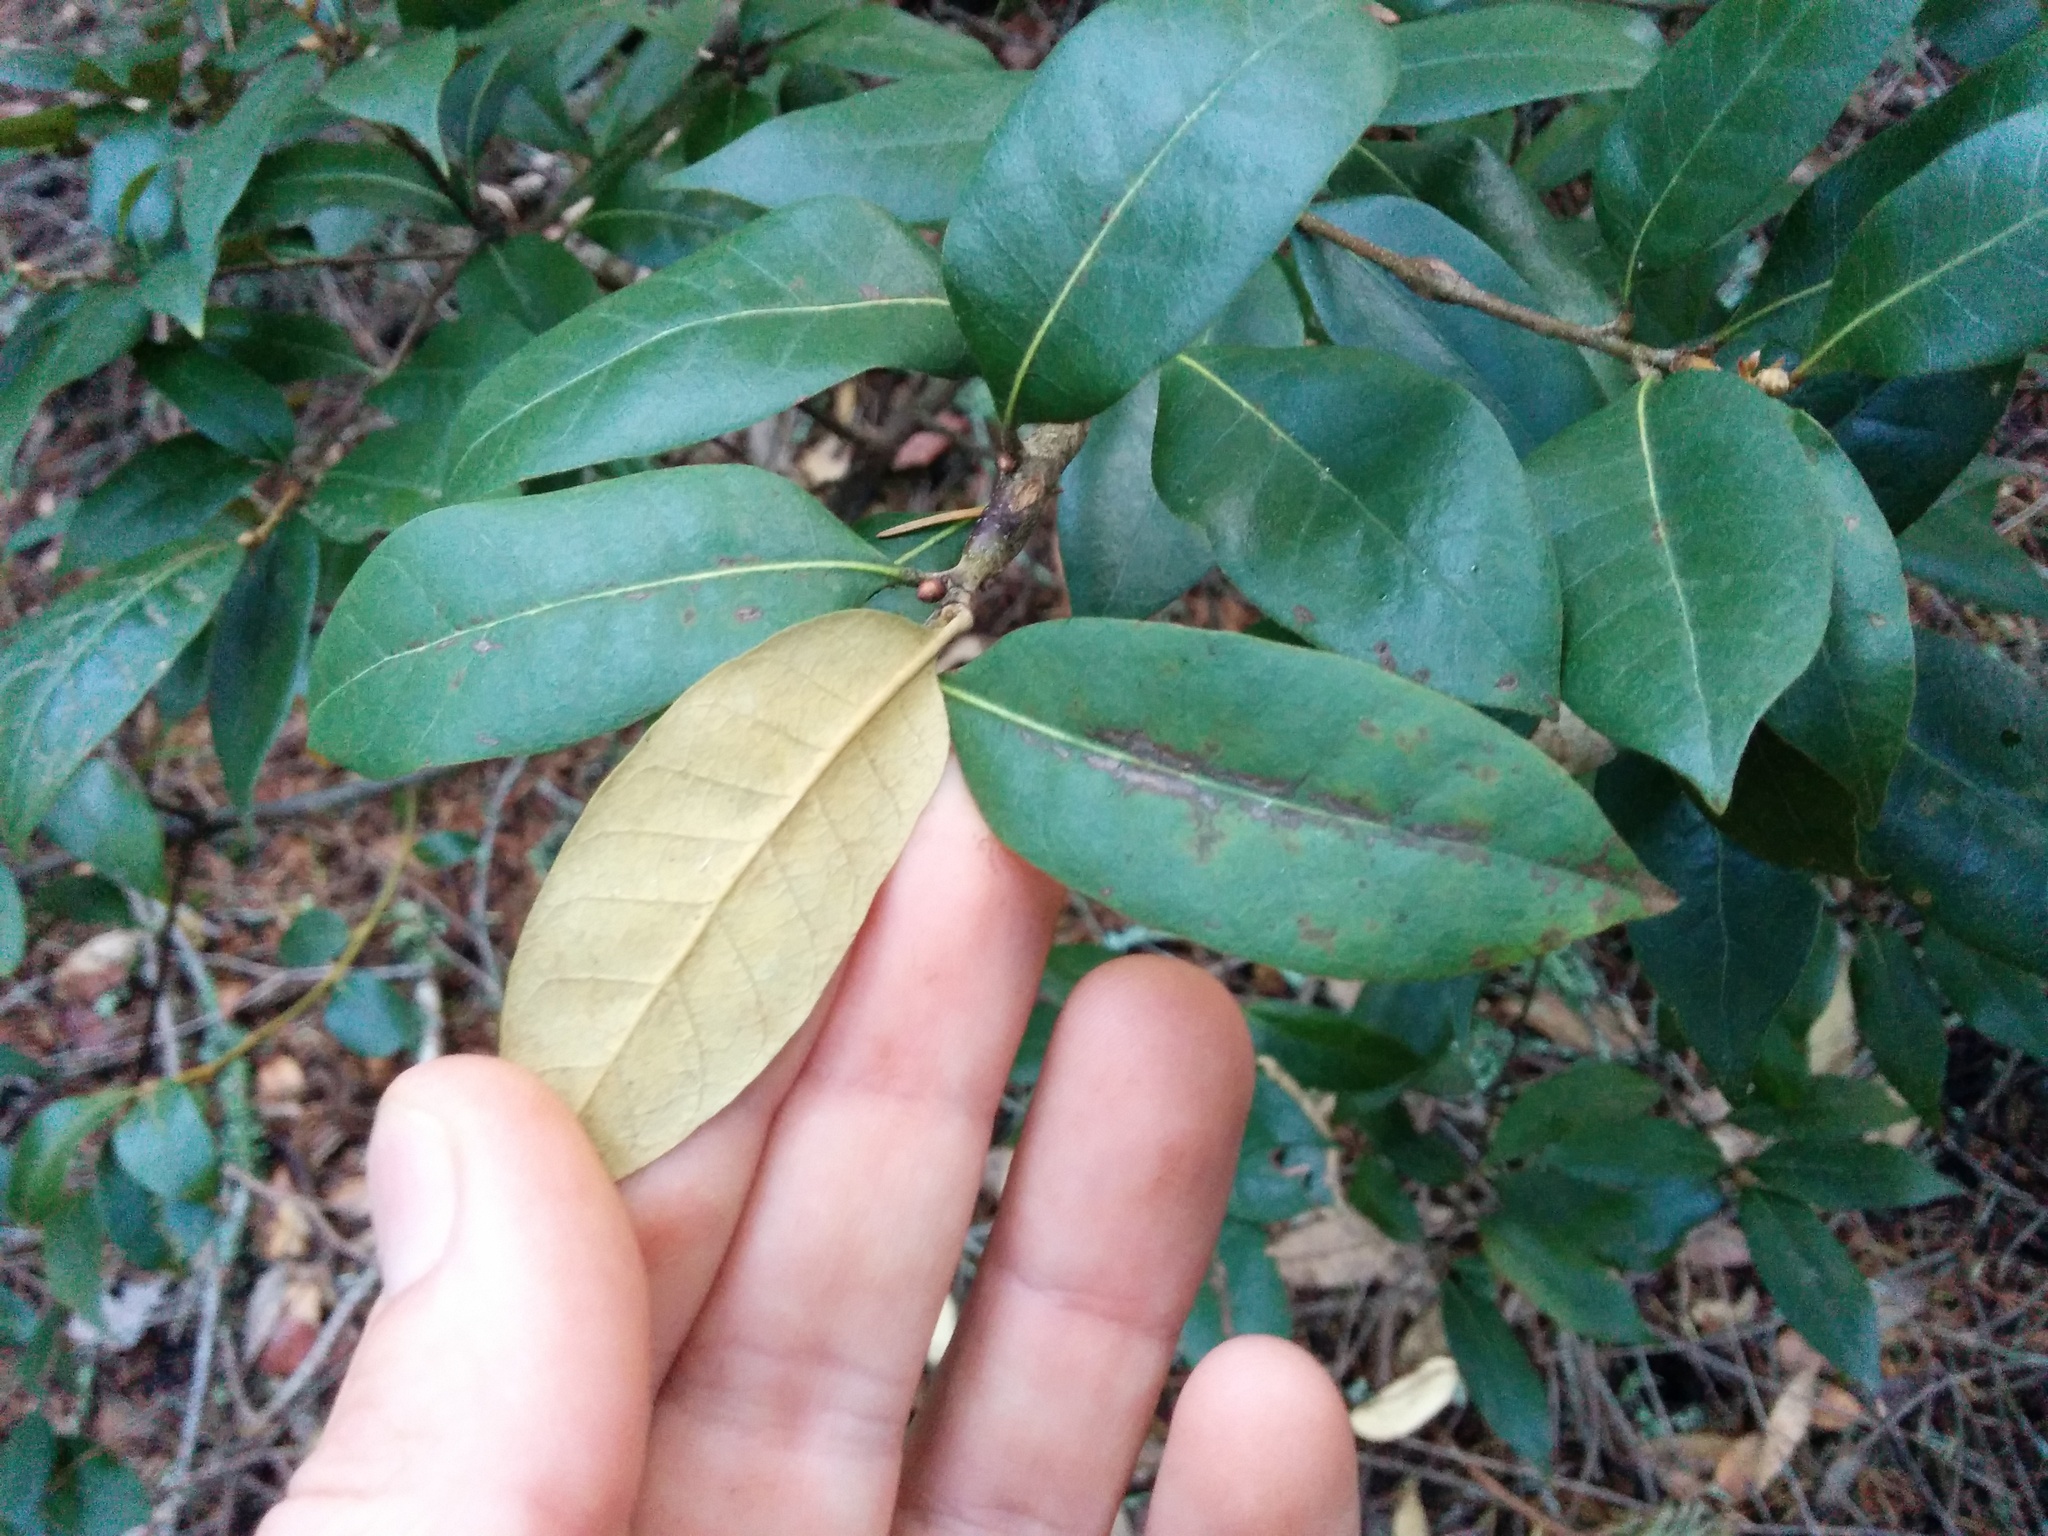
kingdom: Plantae
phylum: Tracheophyta
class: Magnoliopsida
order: Fagales
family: Fagaceae
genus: Chrysolepis
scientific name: Chrysolepis chrysophylla
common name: Giant chinquapin
